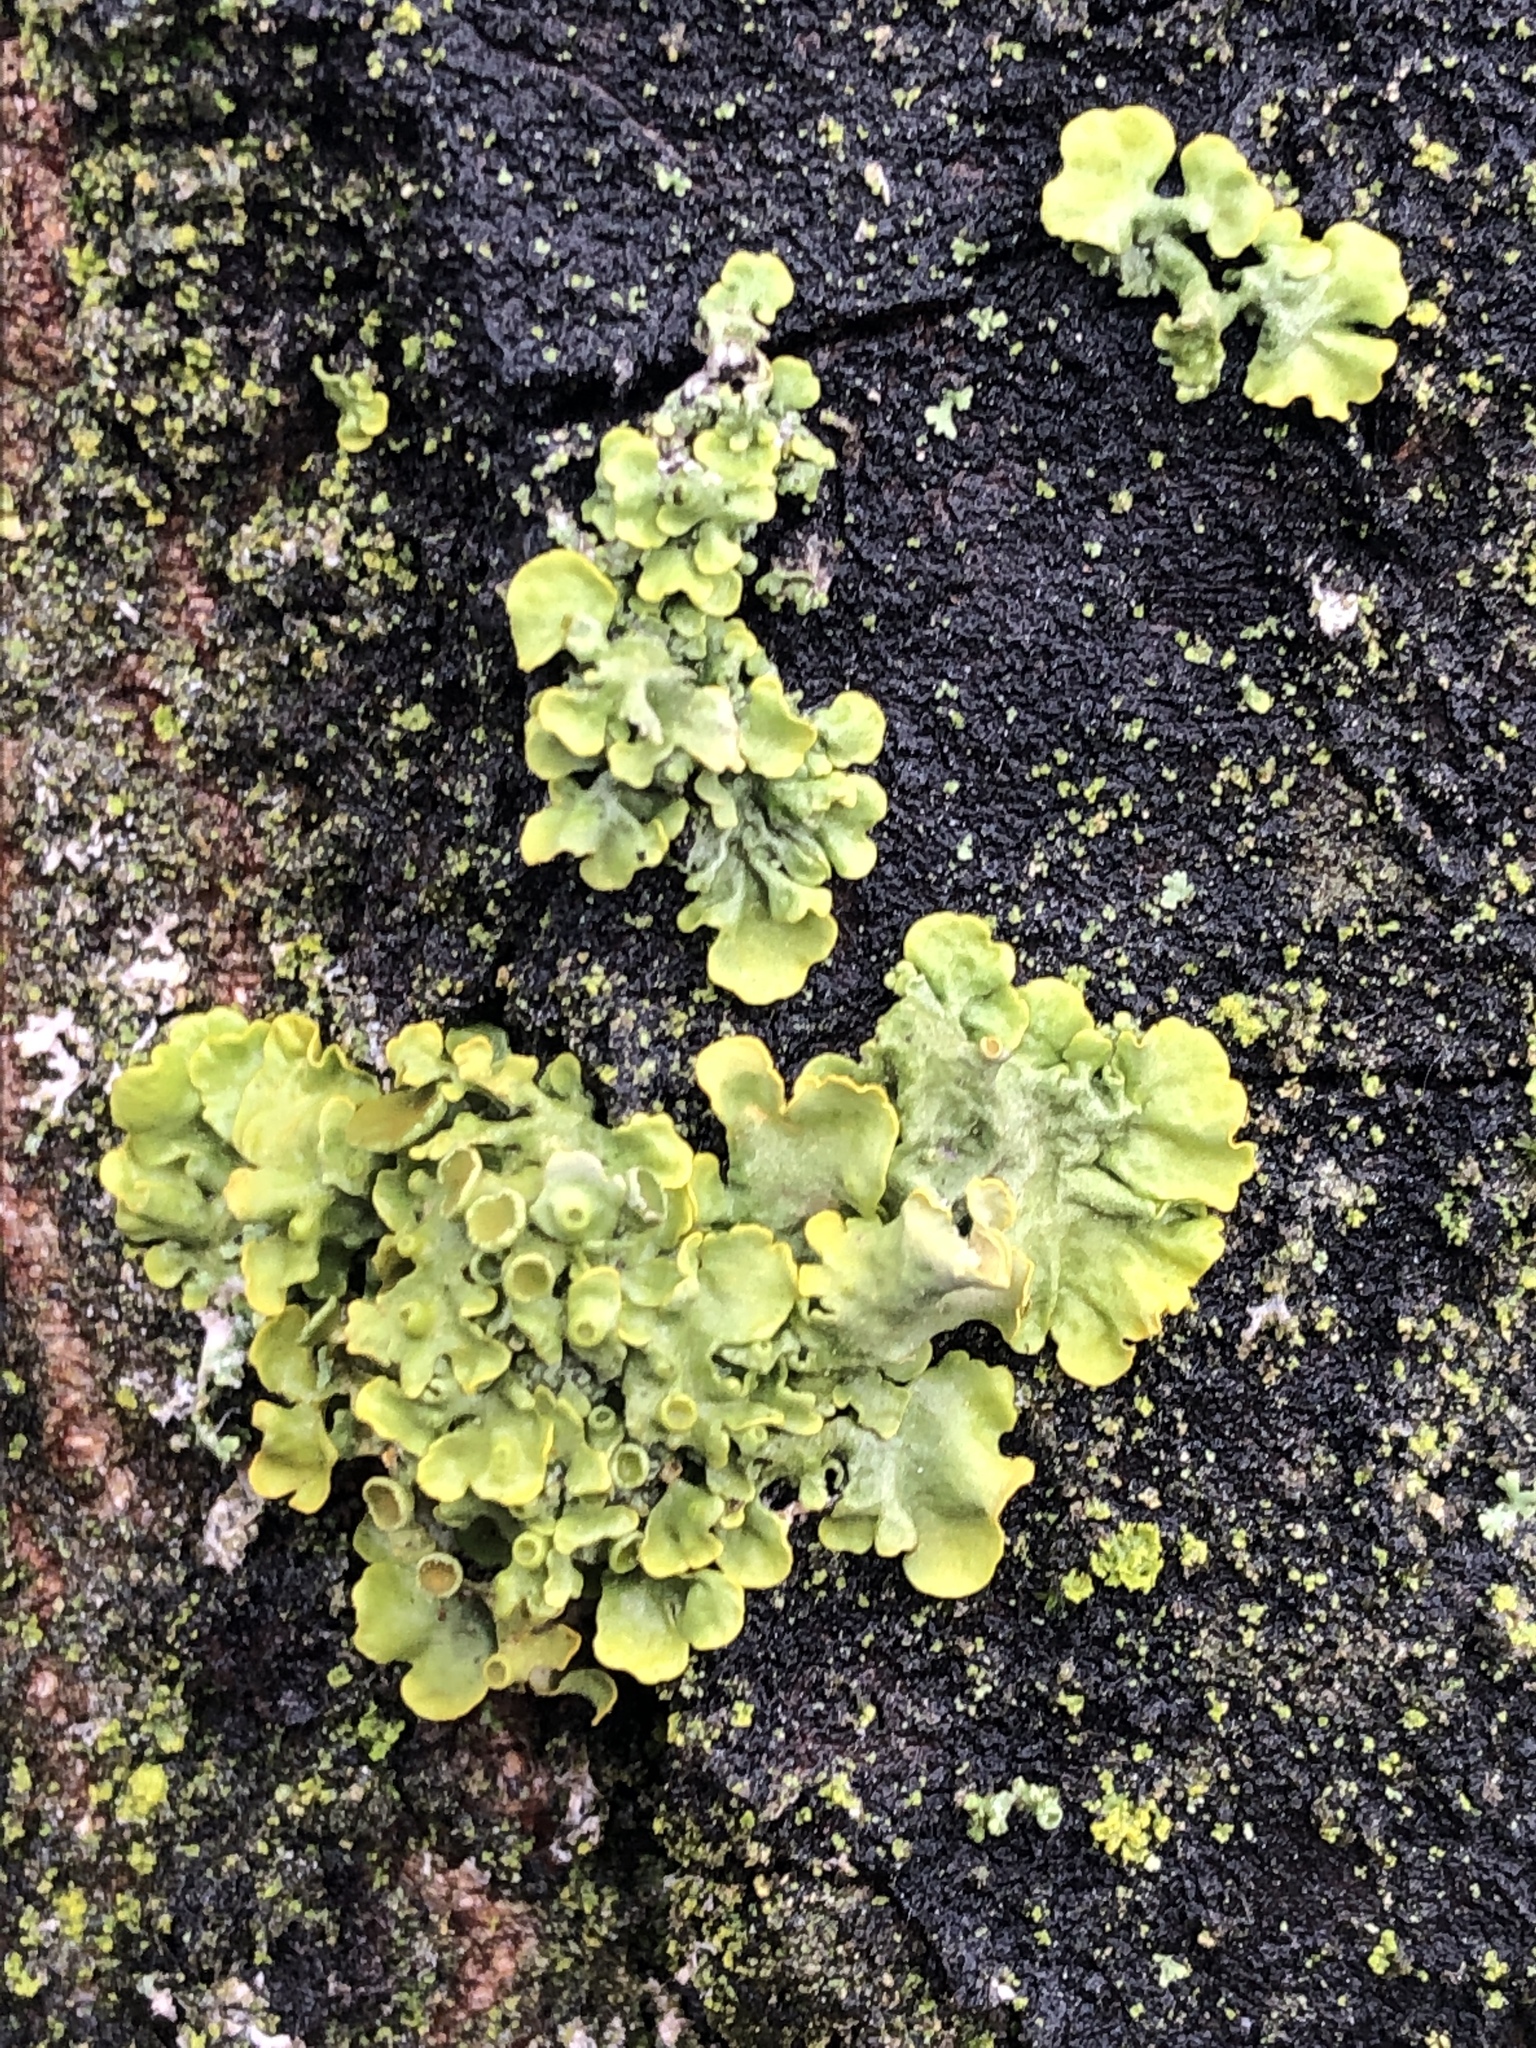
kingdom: Fungi
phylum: Ascomycota
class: Lecanoromycetes
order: Teloschistales
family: Teloschistaceae
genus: Xanthoria
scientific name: Xanthoria parietina
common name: Common orange lichen
